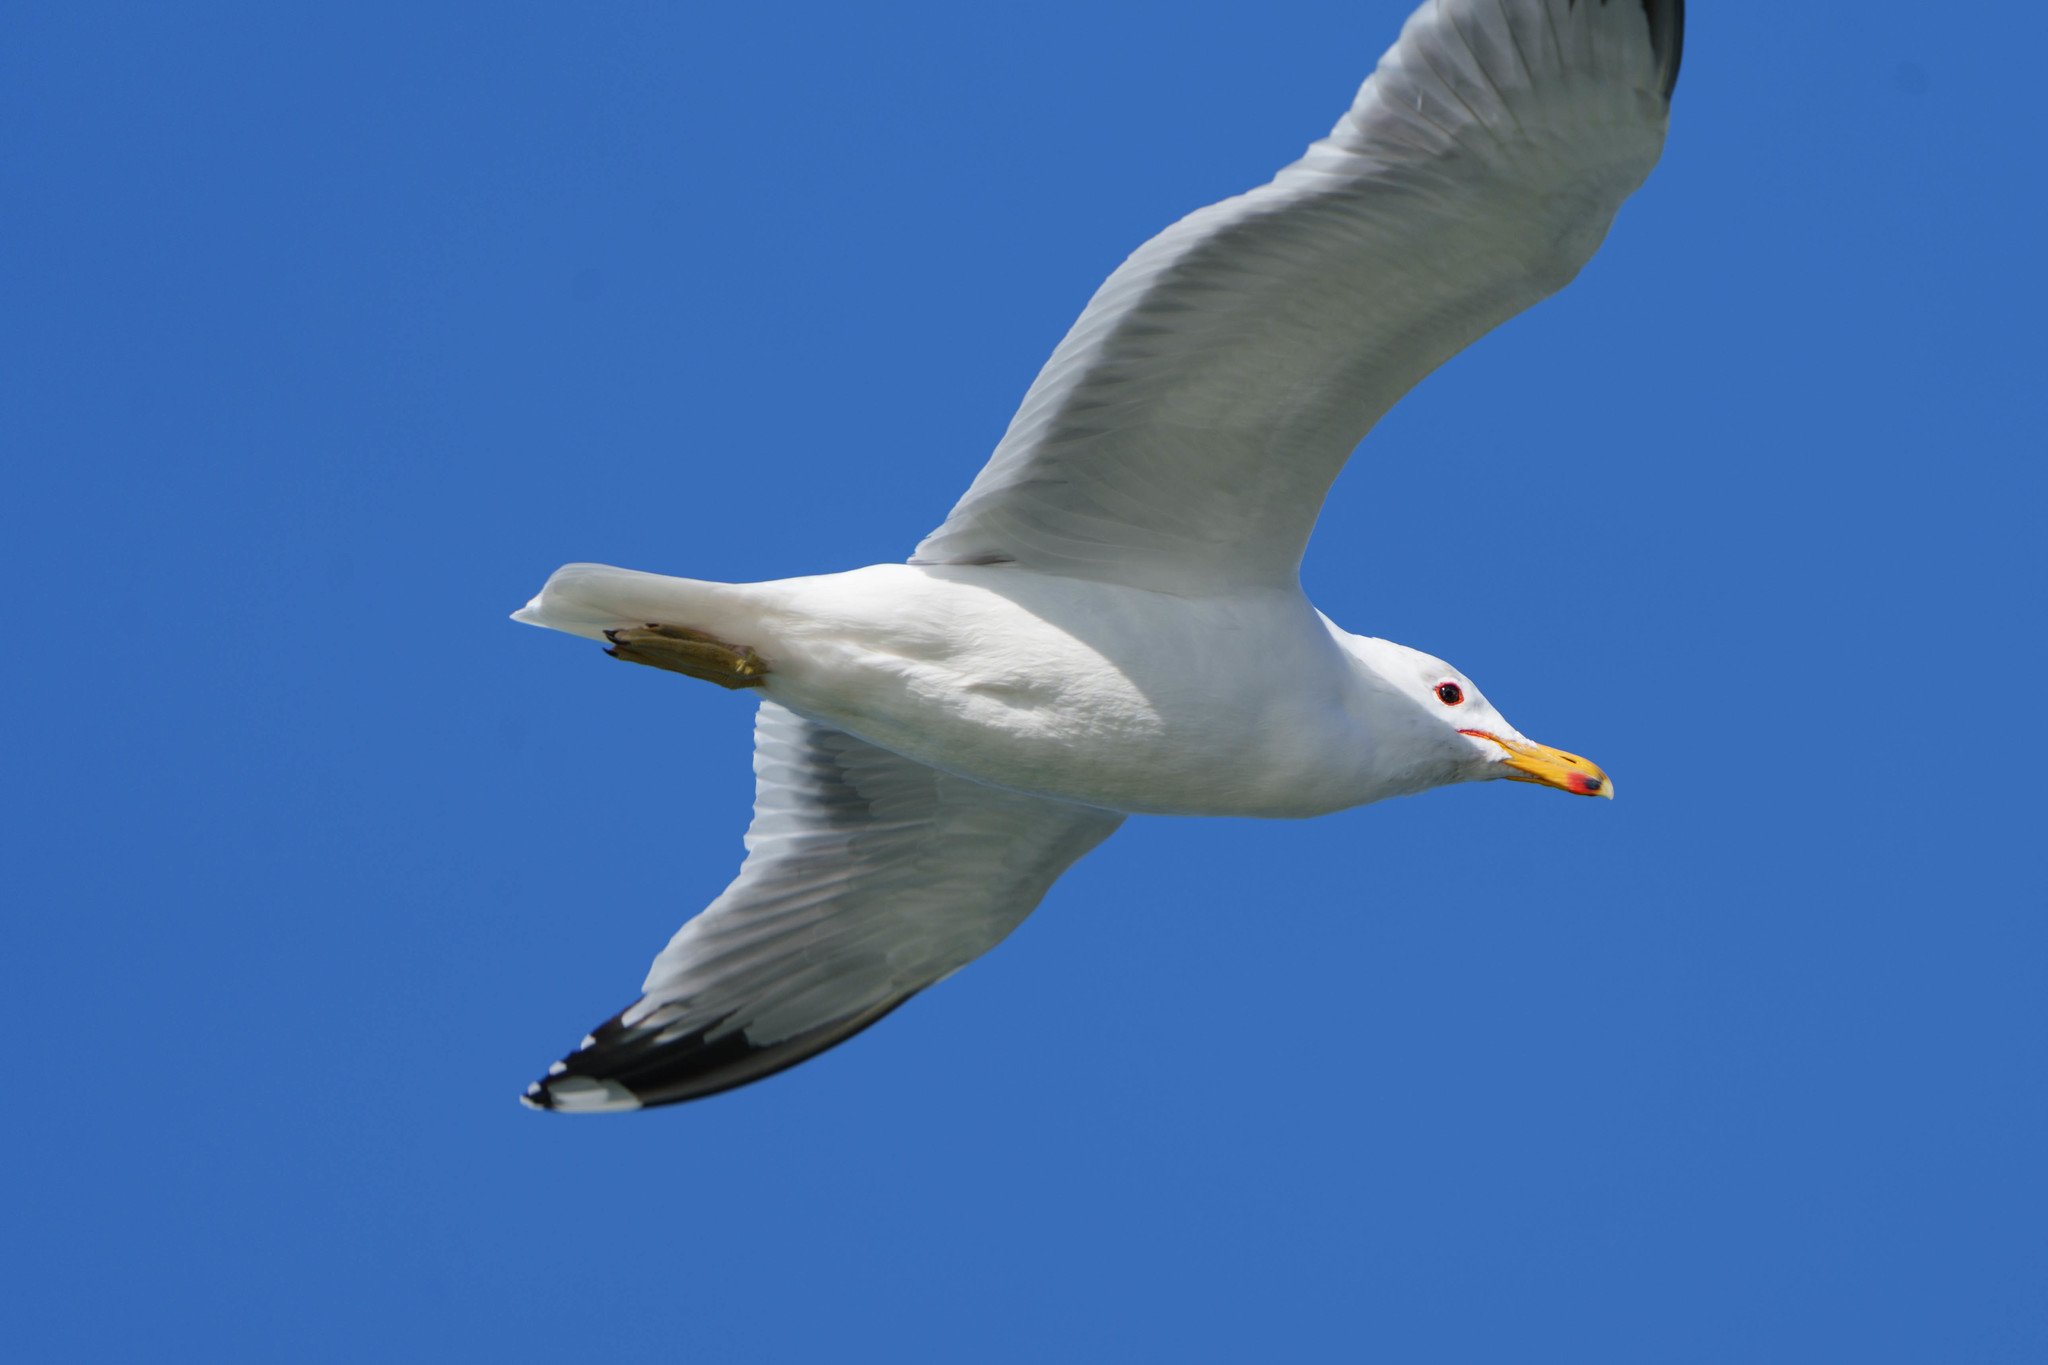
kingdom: Animalia
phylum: Chordata
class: Aves
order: Charadriiformes
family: Laridae
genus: Larus
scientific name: Larus californicus
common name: California gull
